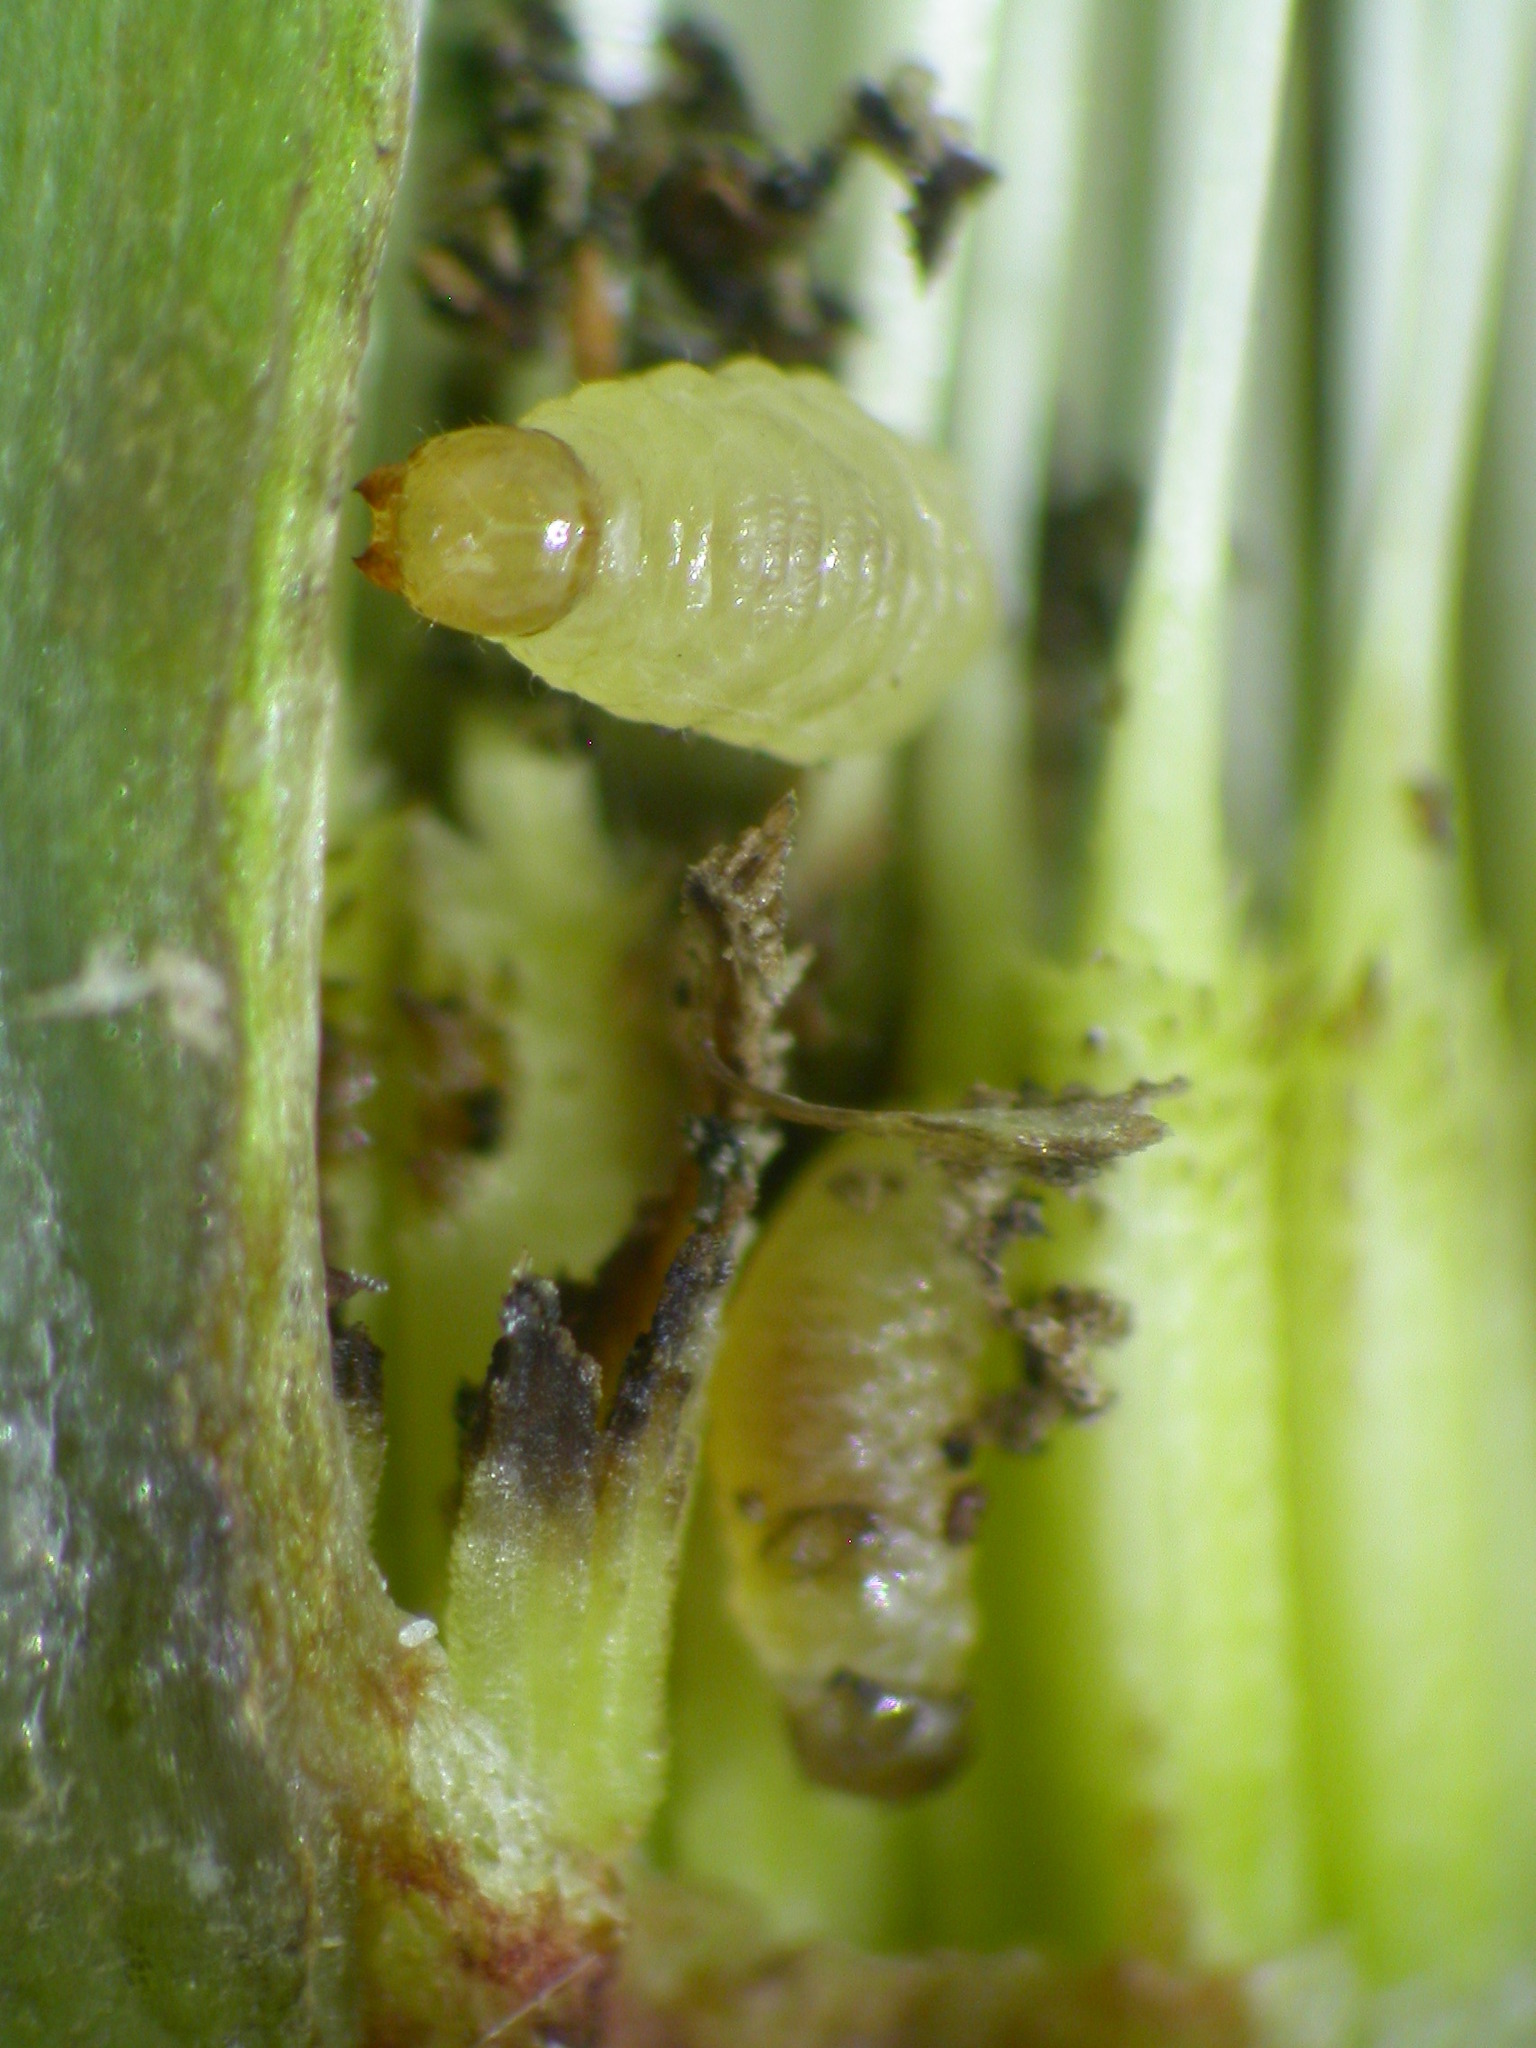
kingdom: Animalia
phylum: Arthropoda
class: Insecta
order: Coleoptera
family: Curculionidae
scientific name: Curculionidae
